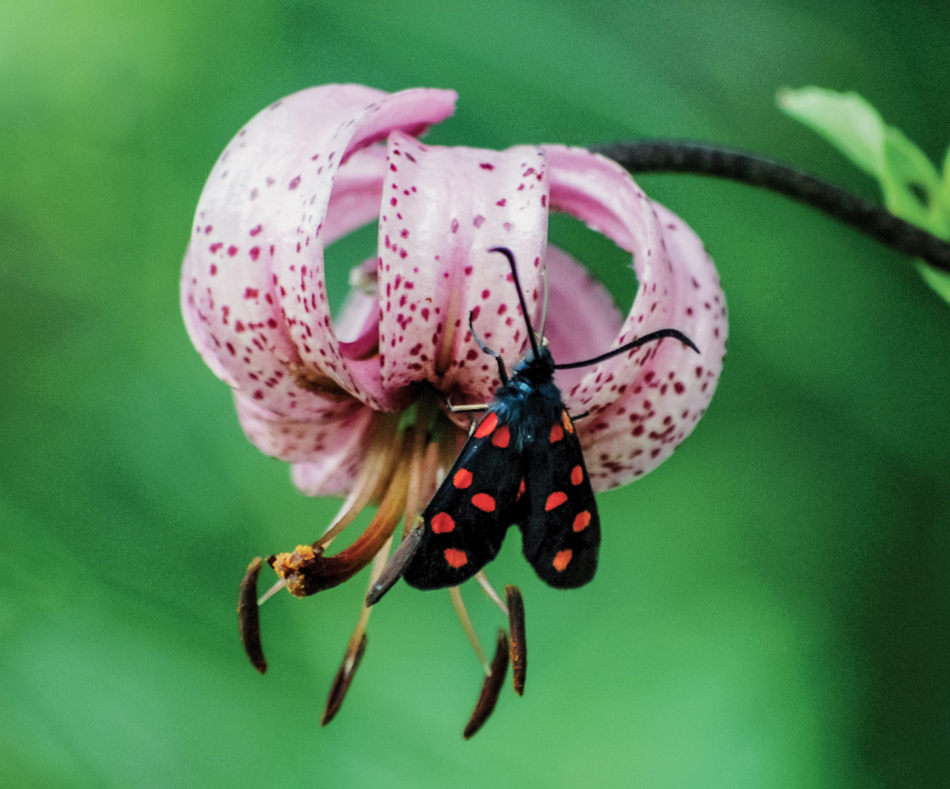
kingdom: Animalia
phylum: Arthropoda
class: Insecta
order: Lepidoptera
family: Zygaenidae
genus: Zygaena
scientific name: Zygaena transalpina
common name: Southern six spot burnet
